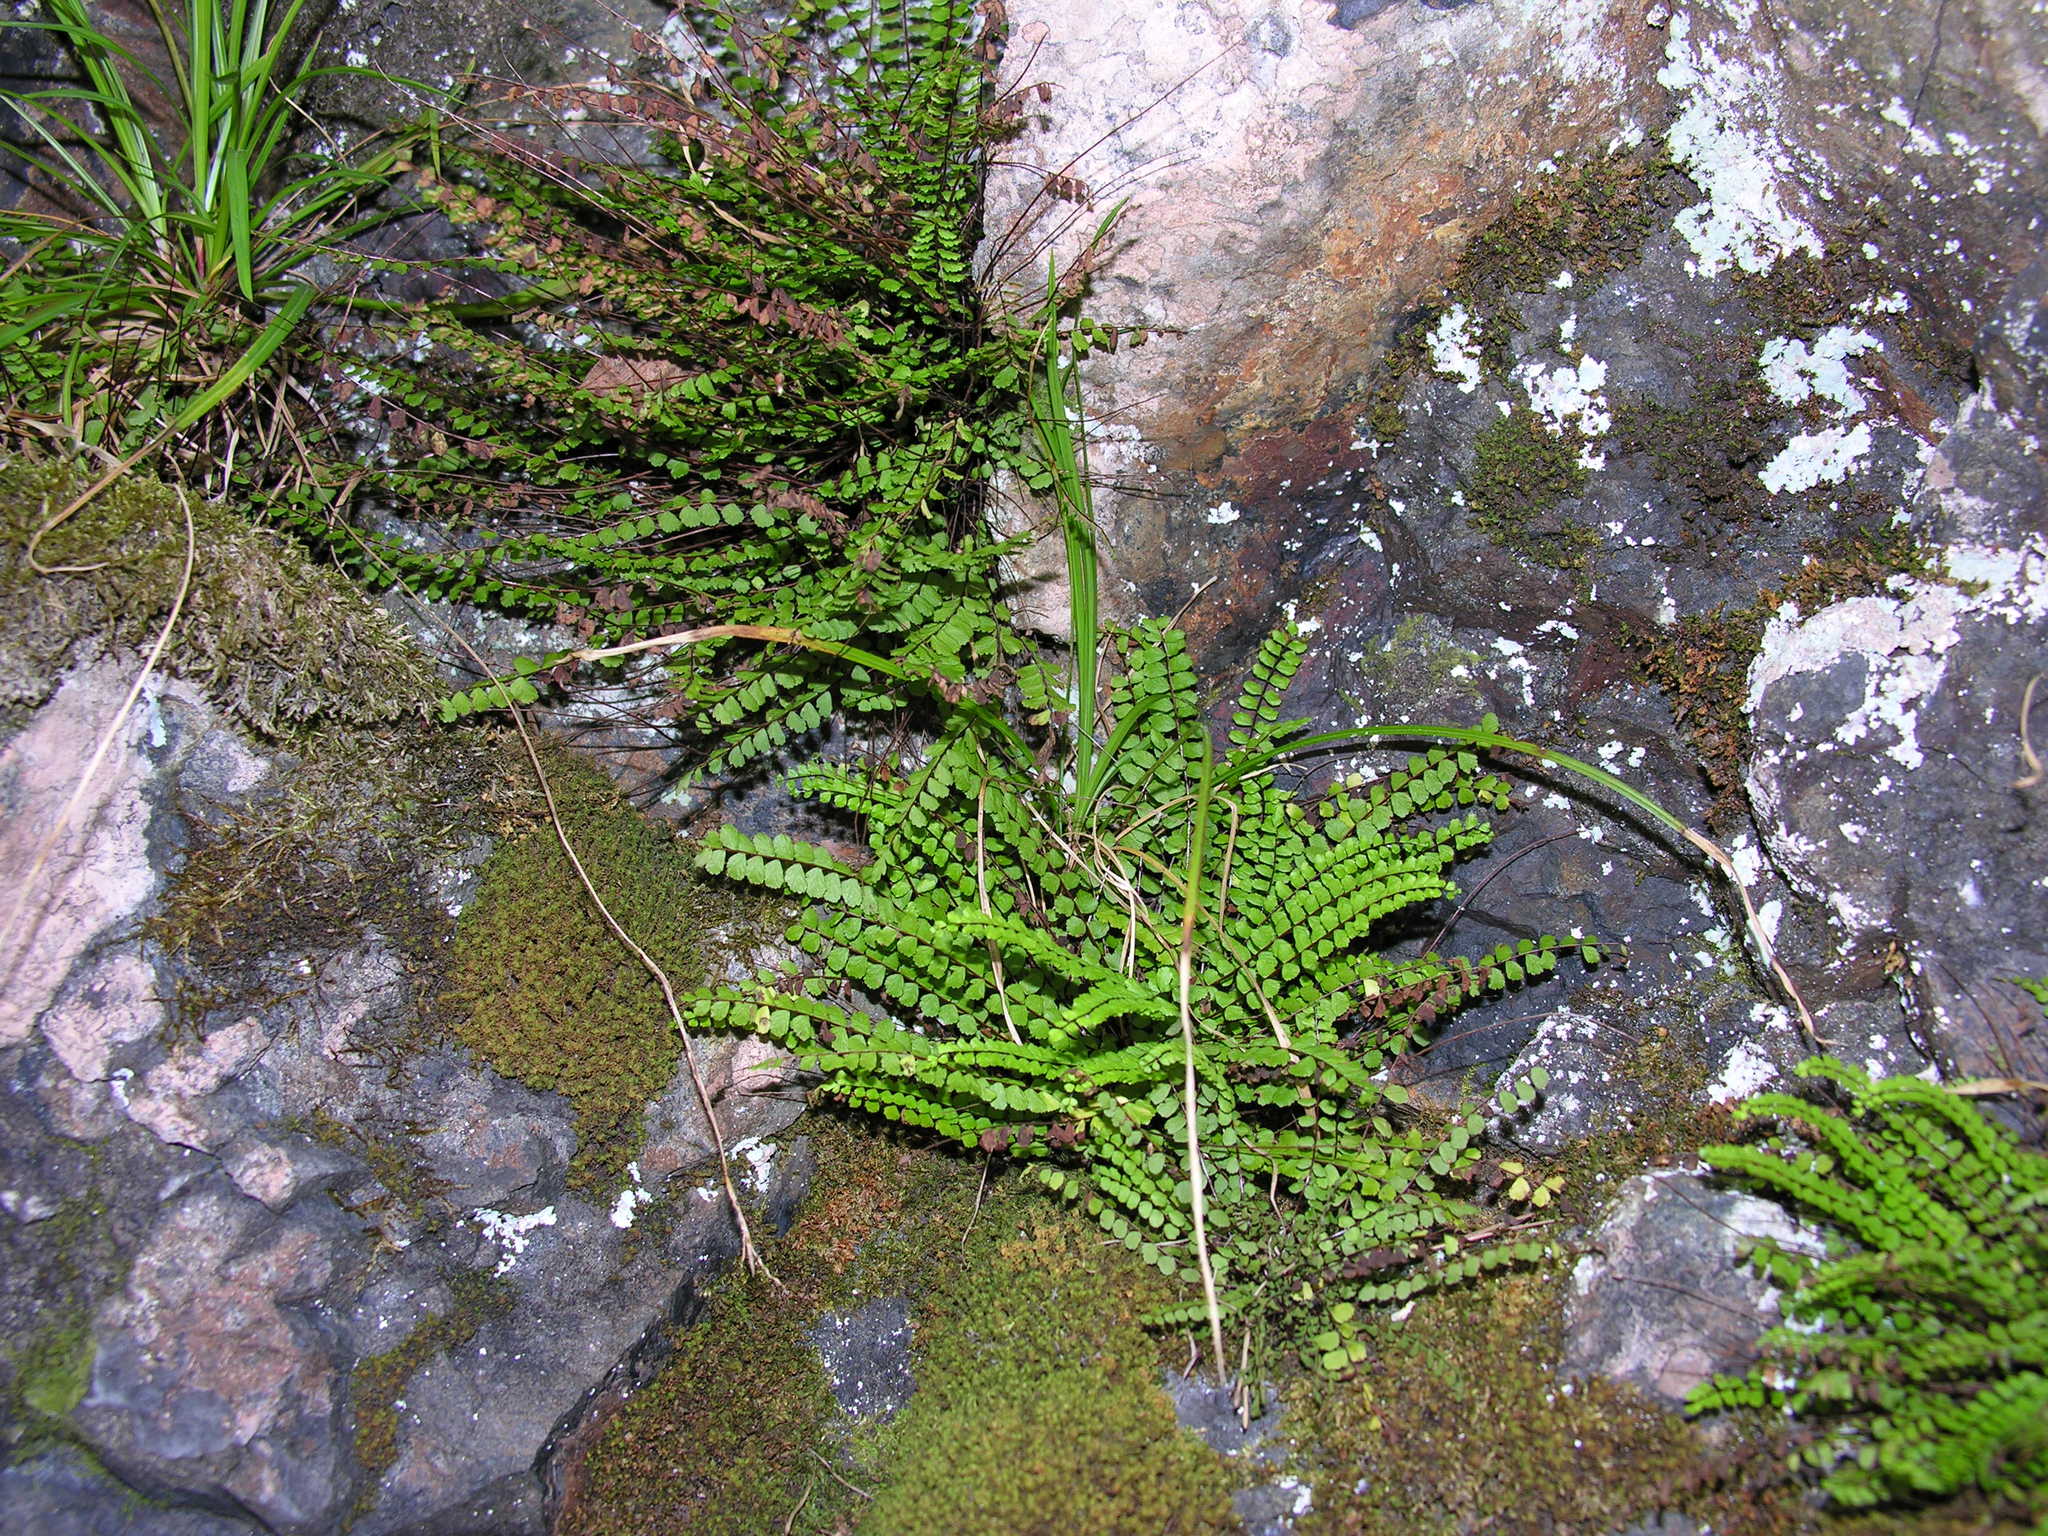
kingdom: Plantae
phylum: Tracheophyta
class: Polypodiopsida
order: Polypodiales
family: Aspleniaceae
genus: Asplenium
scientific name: Asplenium trichomanes
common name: Maidenhair spleenwort
